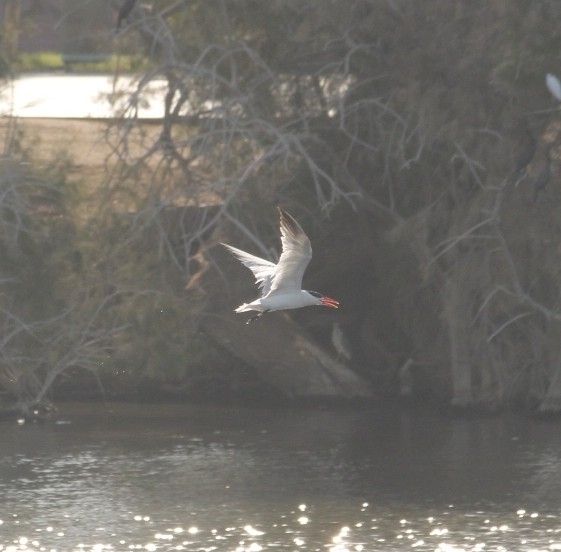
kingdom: Animalia
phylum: Chordata
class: Aves
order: Charadriiformes
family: Laridae
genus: Hydroprogne
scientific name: Hydroprogne caspia
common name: Caspian tern
